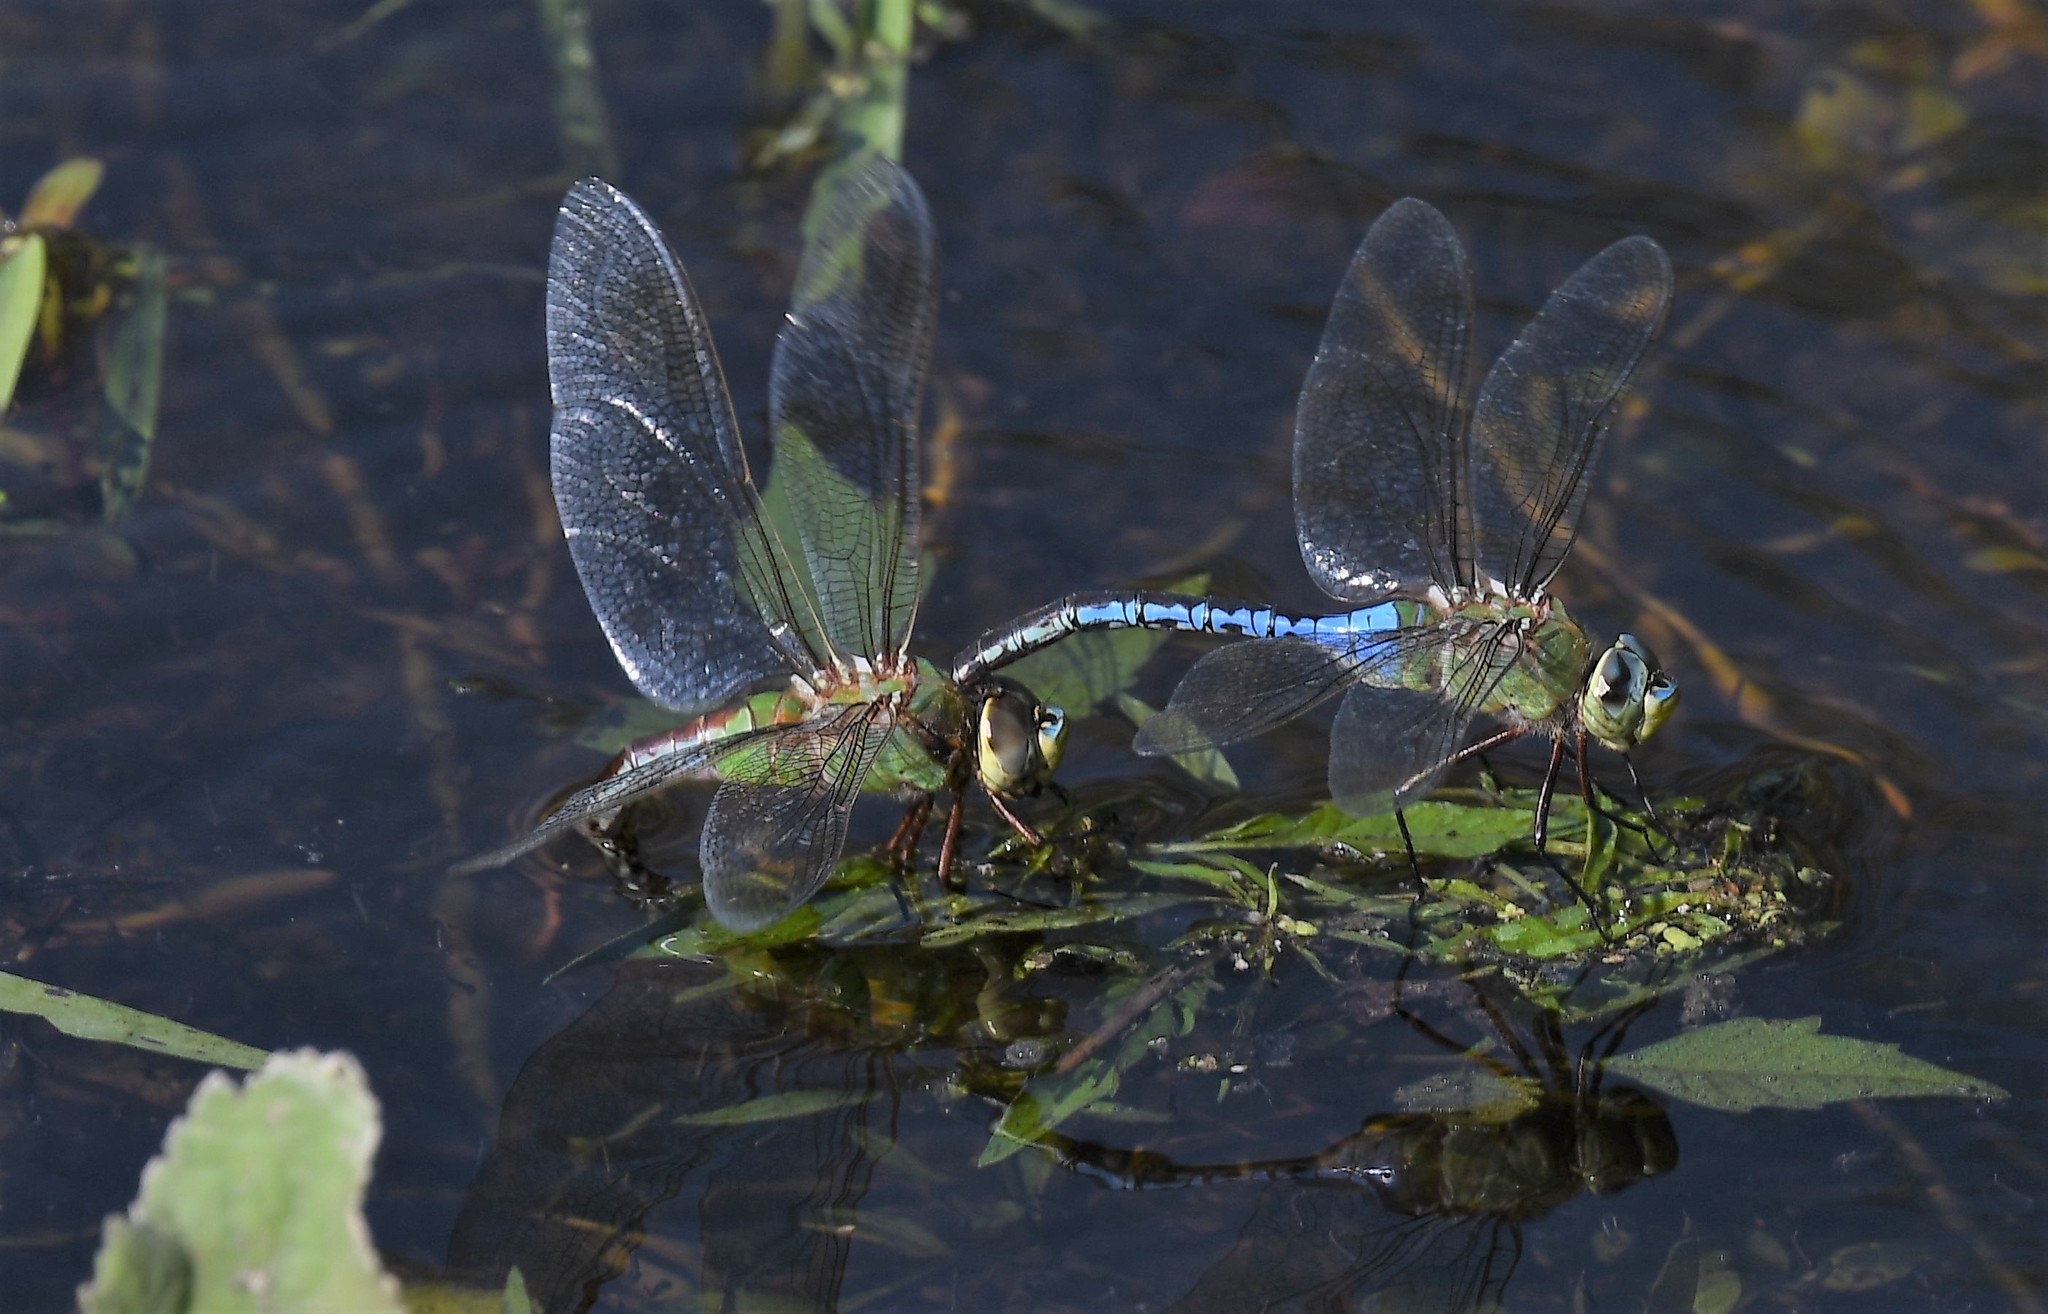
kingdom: Animalia
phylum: Arthropoda
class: Insecta
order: Odonata
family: Aeshnidae
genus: Anax
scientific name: Anax junius
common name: Common green darner
